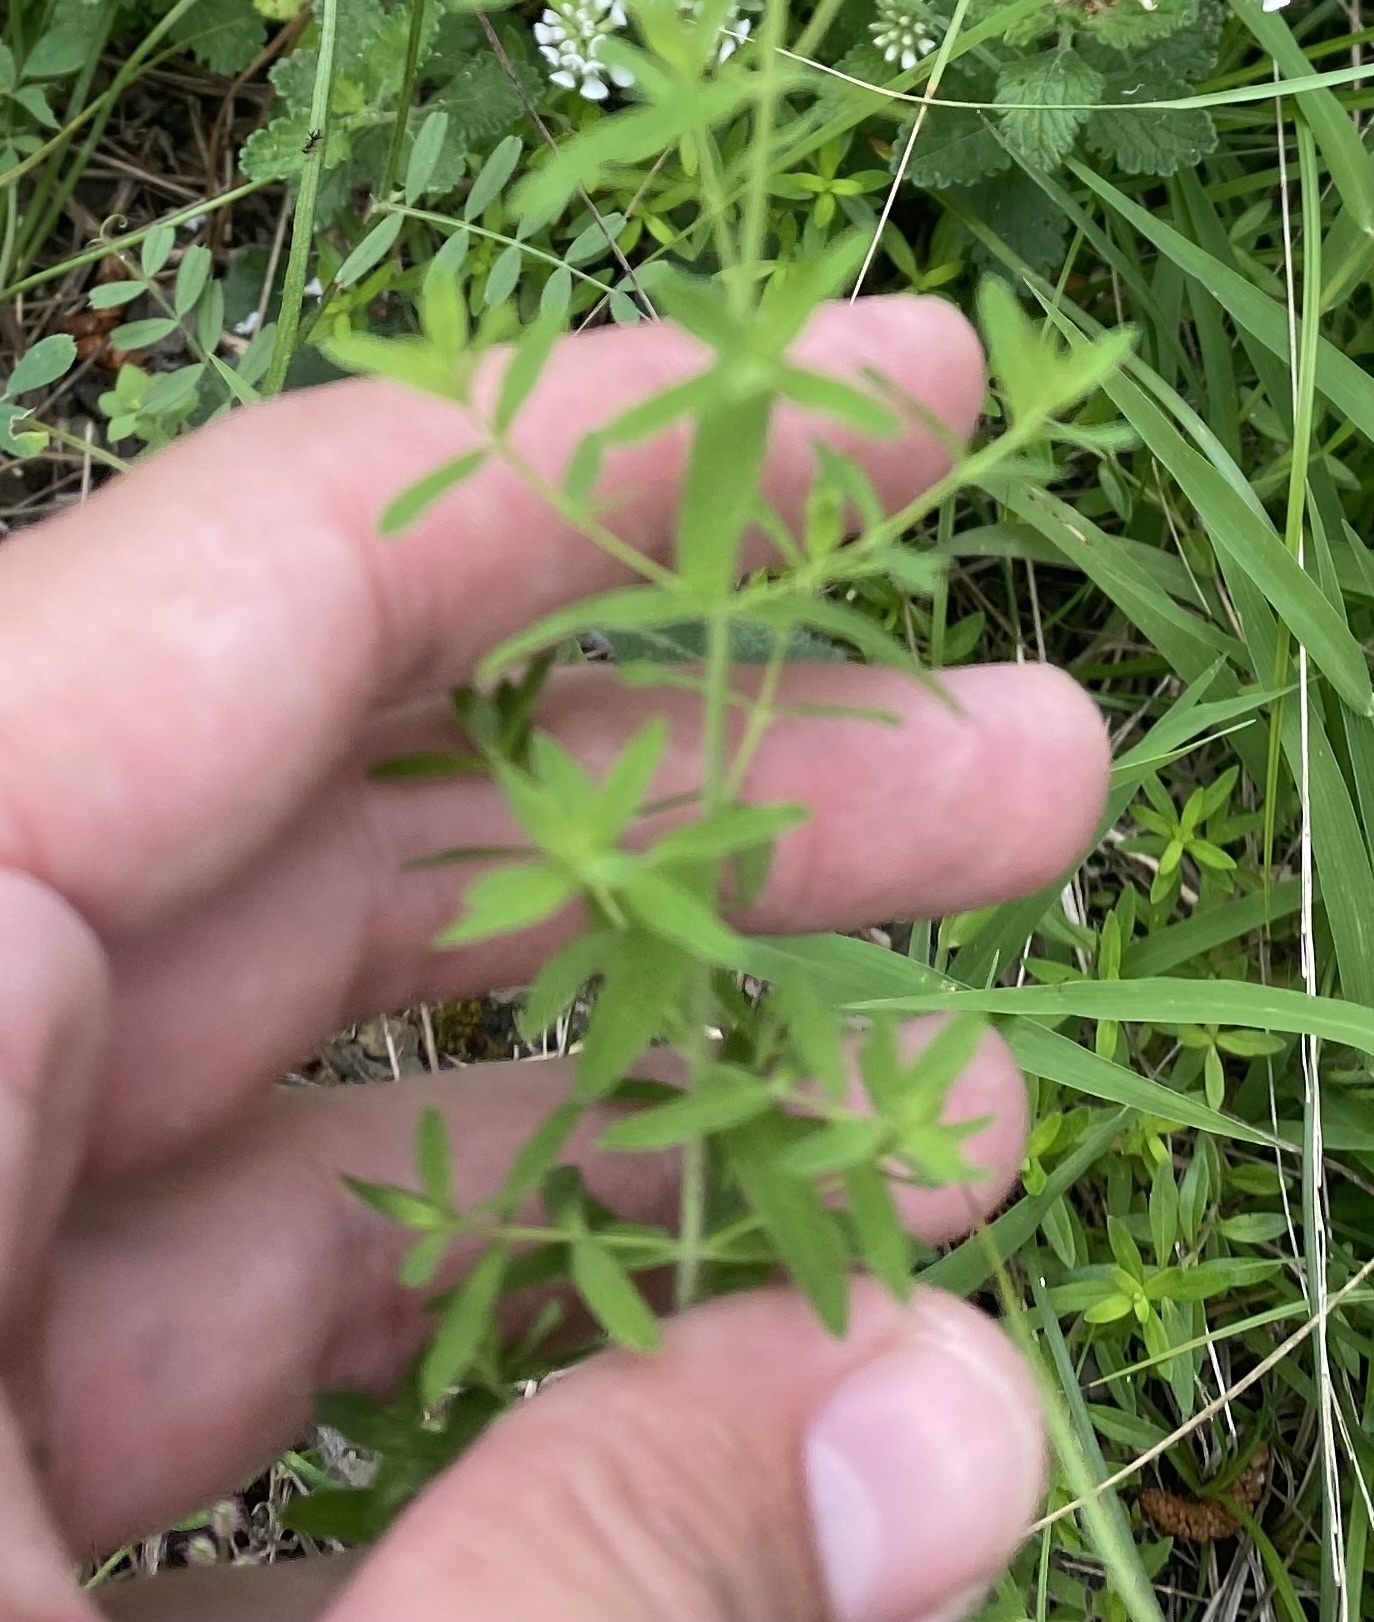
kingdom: Plantae
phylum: Tracheophyta
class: Magnoliopsida
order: Malpighiales
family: Hypericaceae
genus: Hypericum
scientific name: Hypericum perforatum
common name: Common st. johnswort
